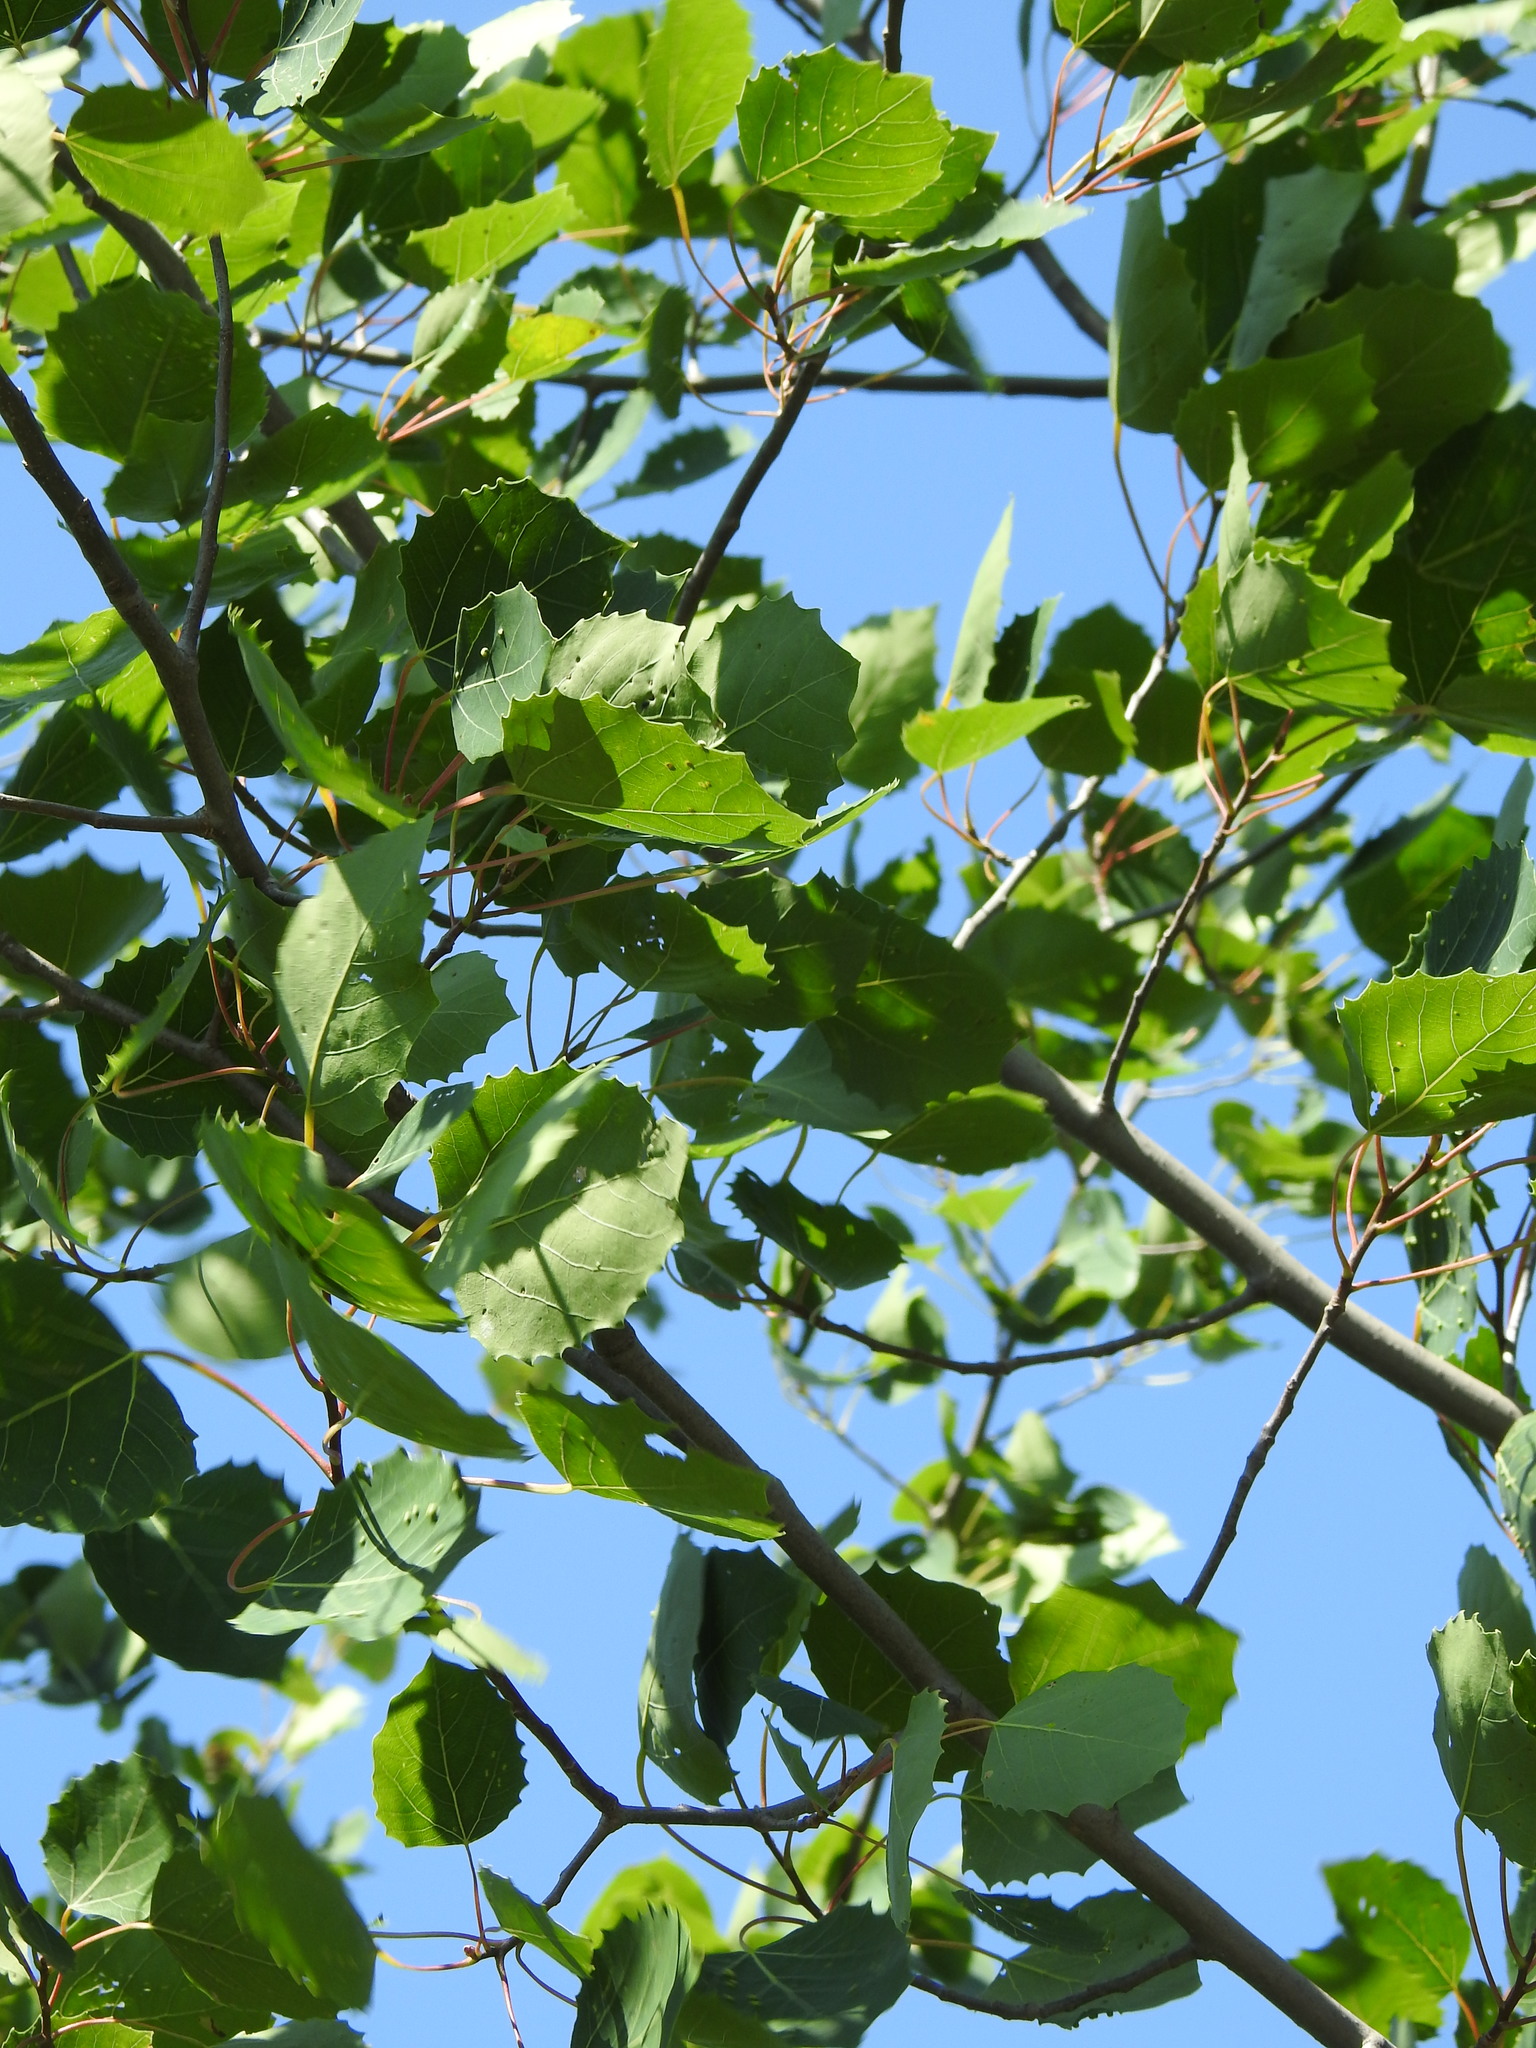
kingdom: Plantae
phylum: Tracheophyta
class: Magnoliopsida
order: Malpighiales
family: Salicaceae
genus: Populus
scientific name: Populus grandidentata
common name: Bigtooth aspen
